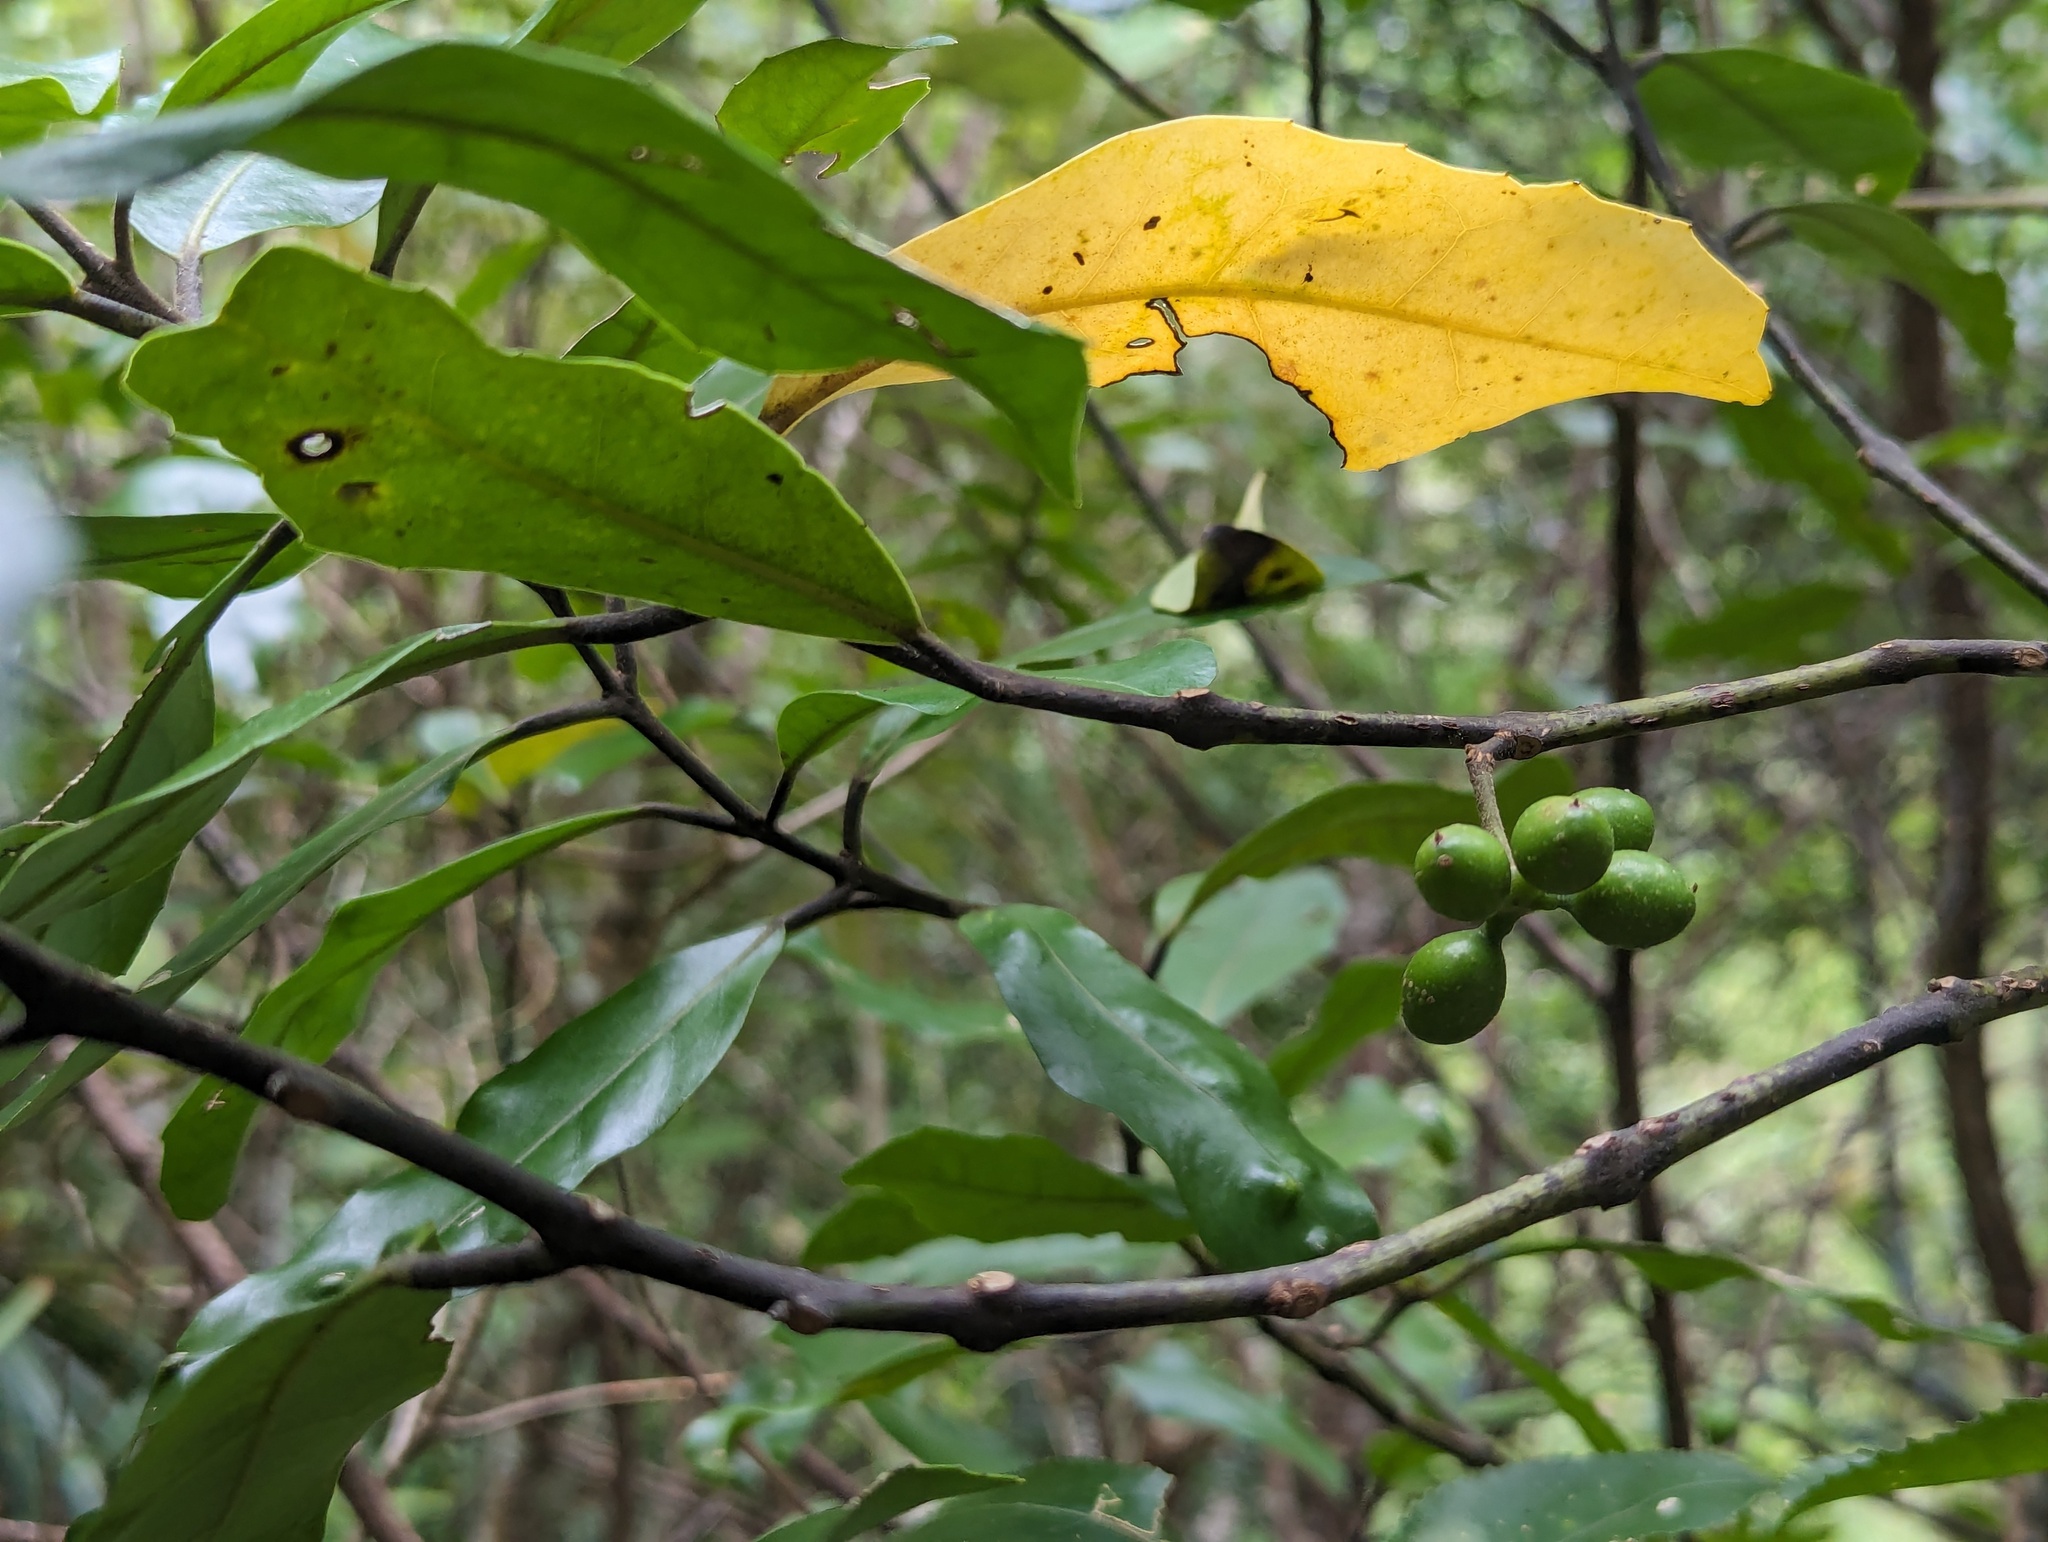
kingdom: Plantae
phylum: Tracheophyta
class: Magnoliopsida
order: Laurales
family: Monimiaceae
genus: Hedycarya
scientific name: Hedycarya arborea
